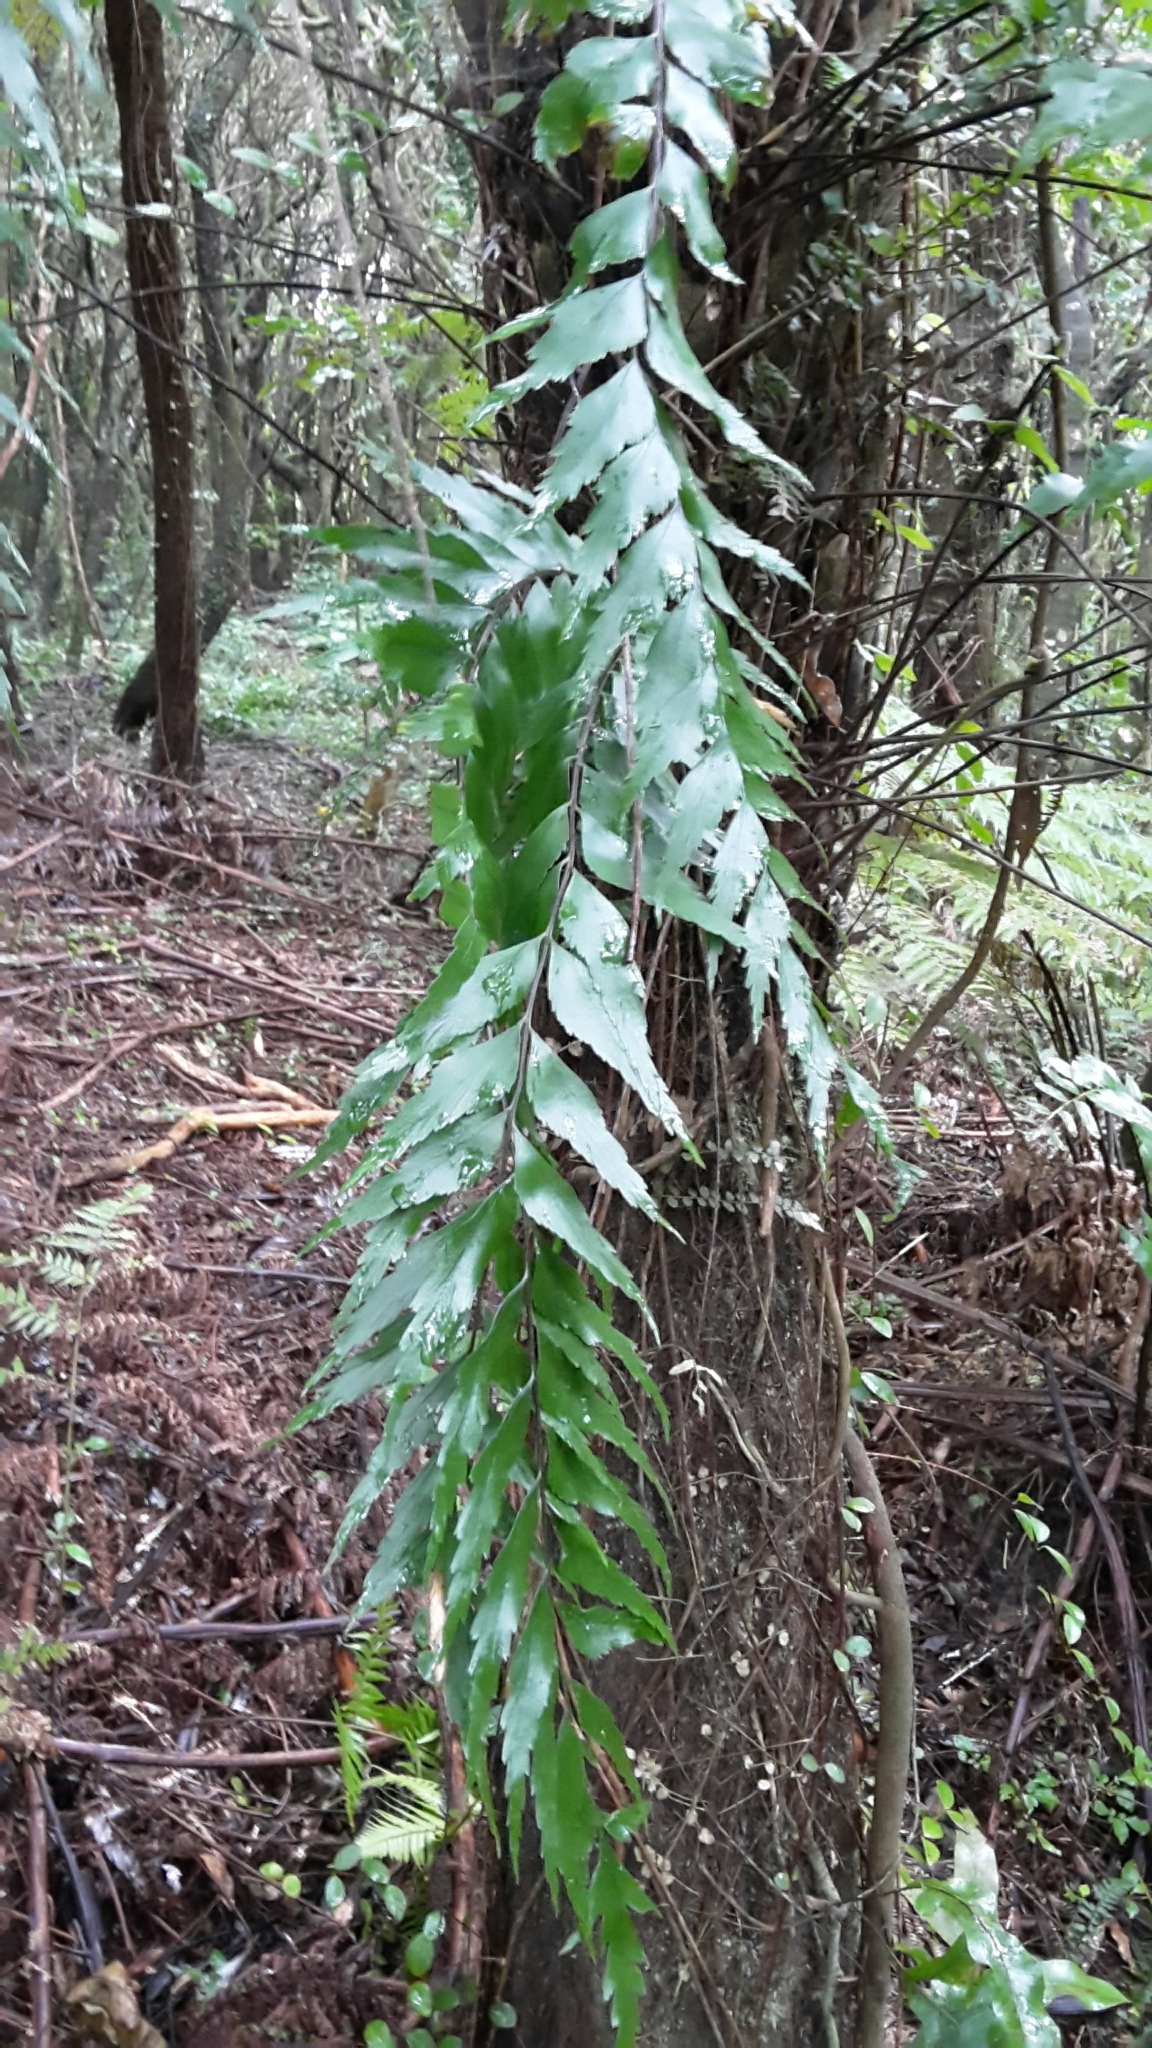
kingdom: Plantae
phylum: Tracheophyta
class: Polypodiopsida
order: Polypodiales
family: Aspleniaceae
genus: Asplenium
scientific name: Asplenium polyodon
